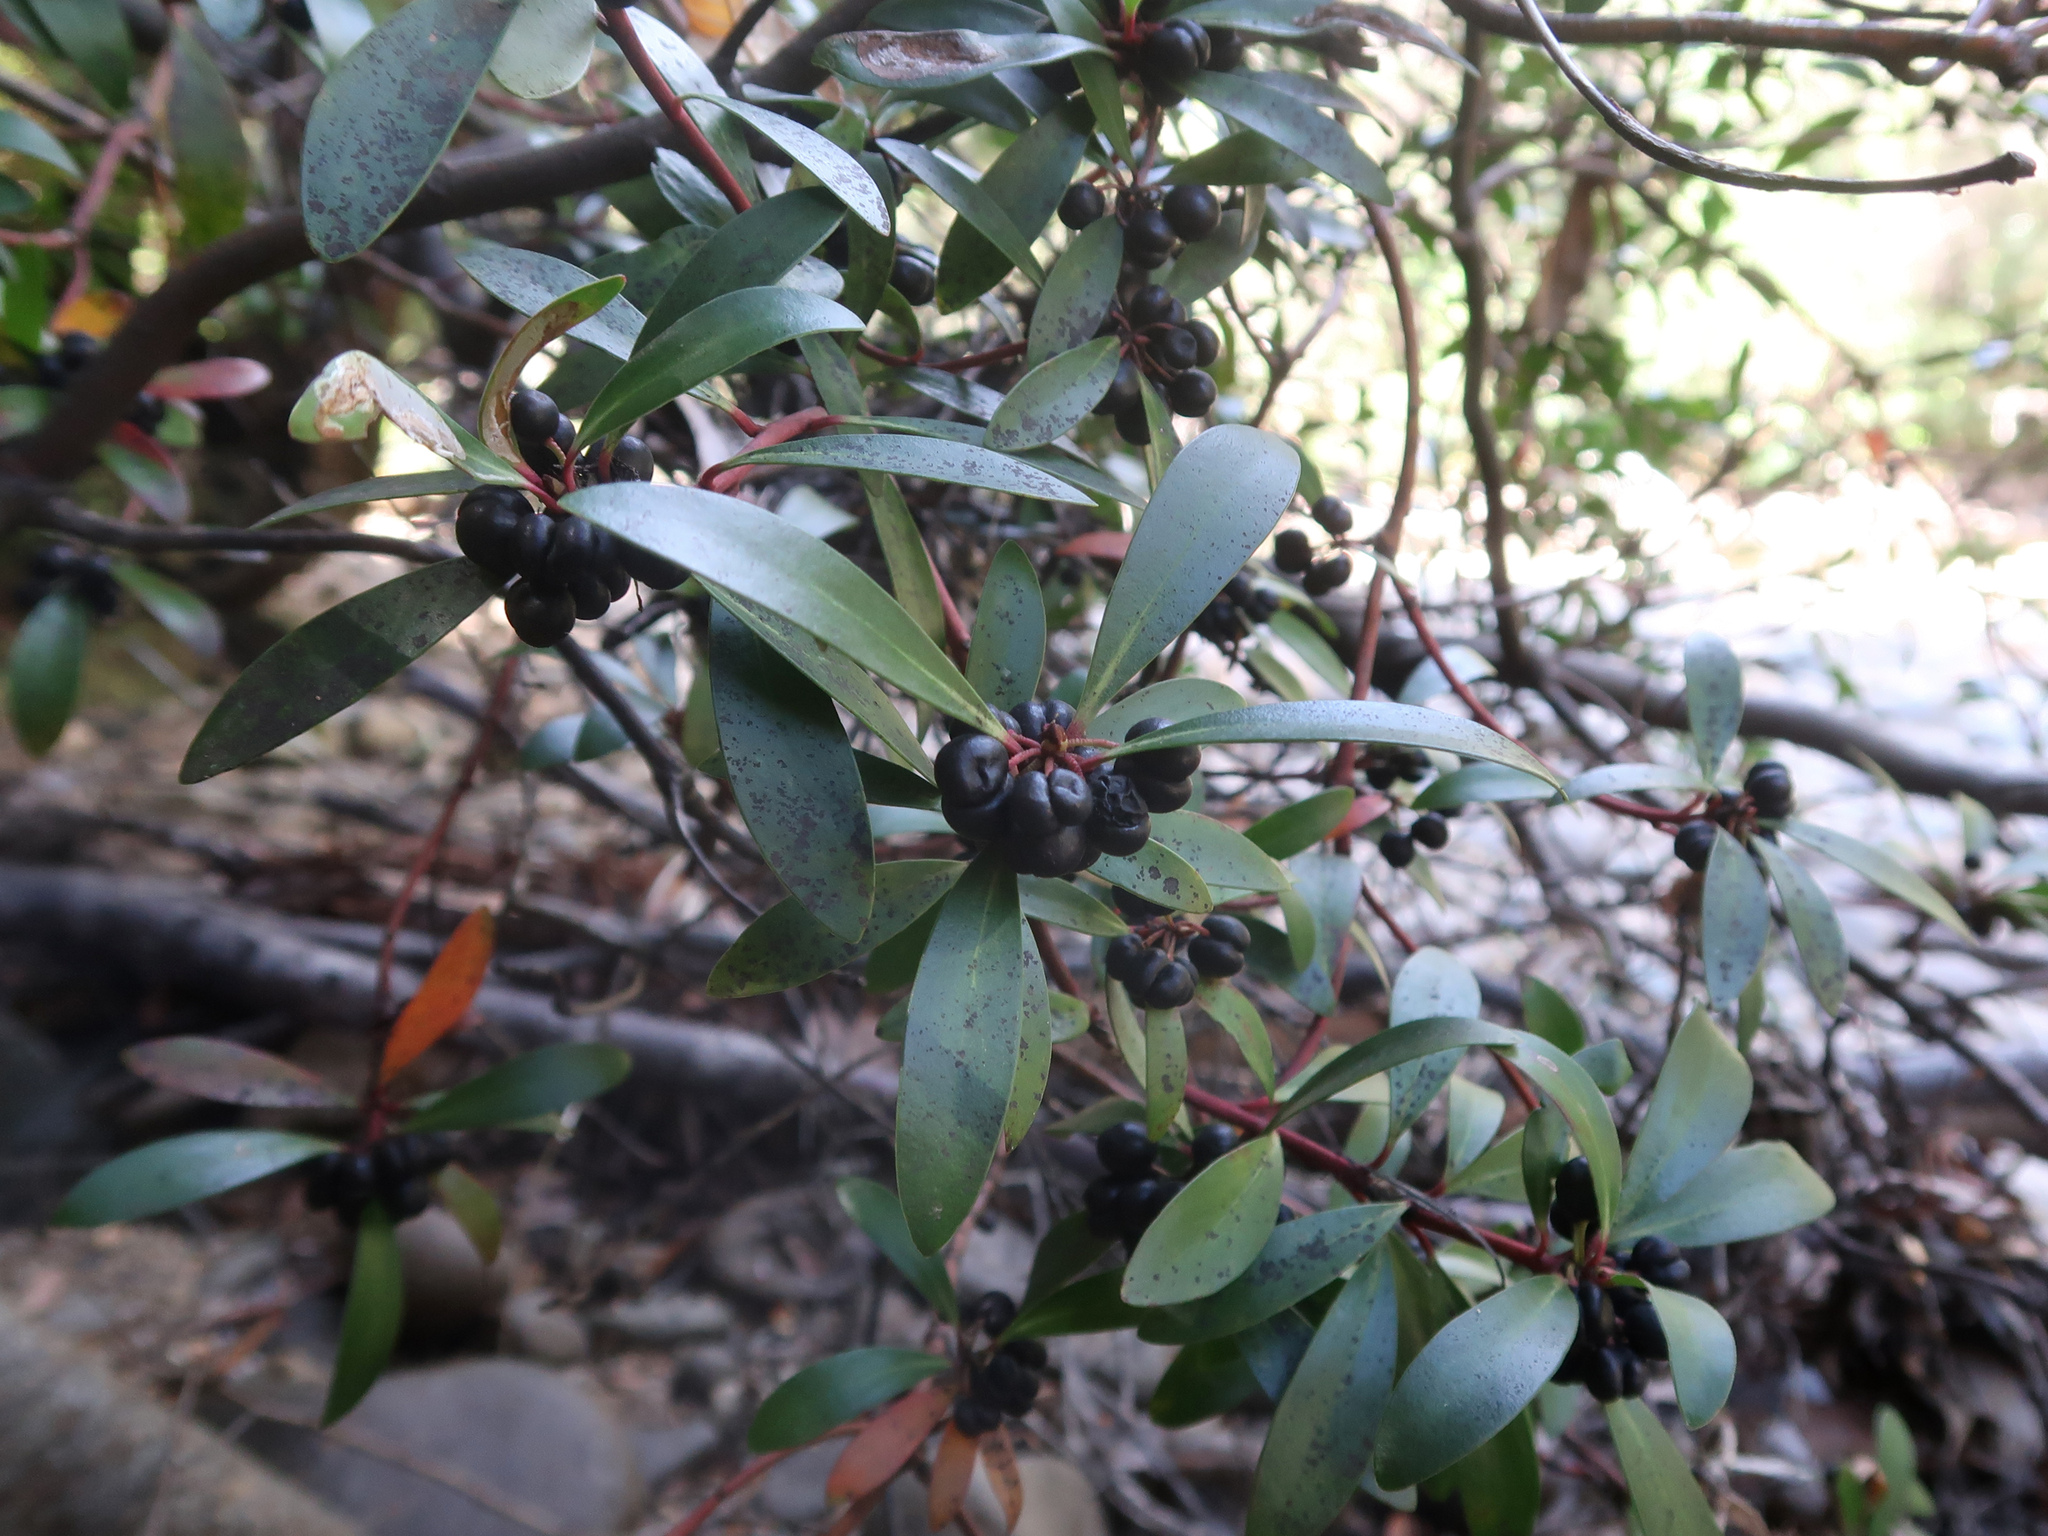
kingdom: Plantae
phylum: Tracheophyta
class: Magnoliopsida
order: Canellales
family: Winteraceae
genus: Drimys
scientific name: Drimys aromatica
